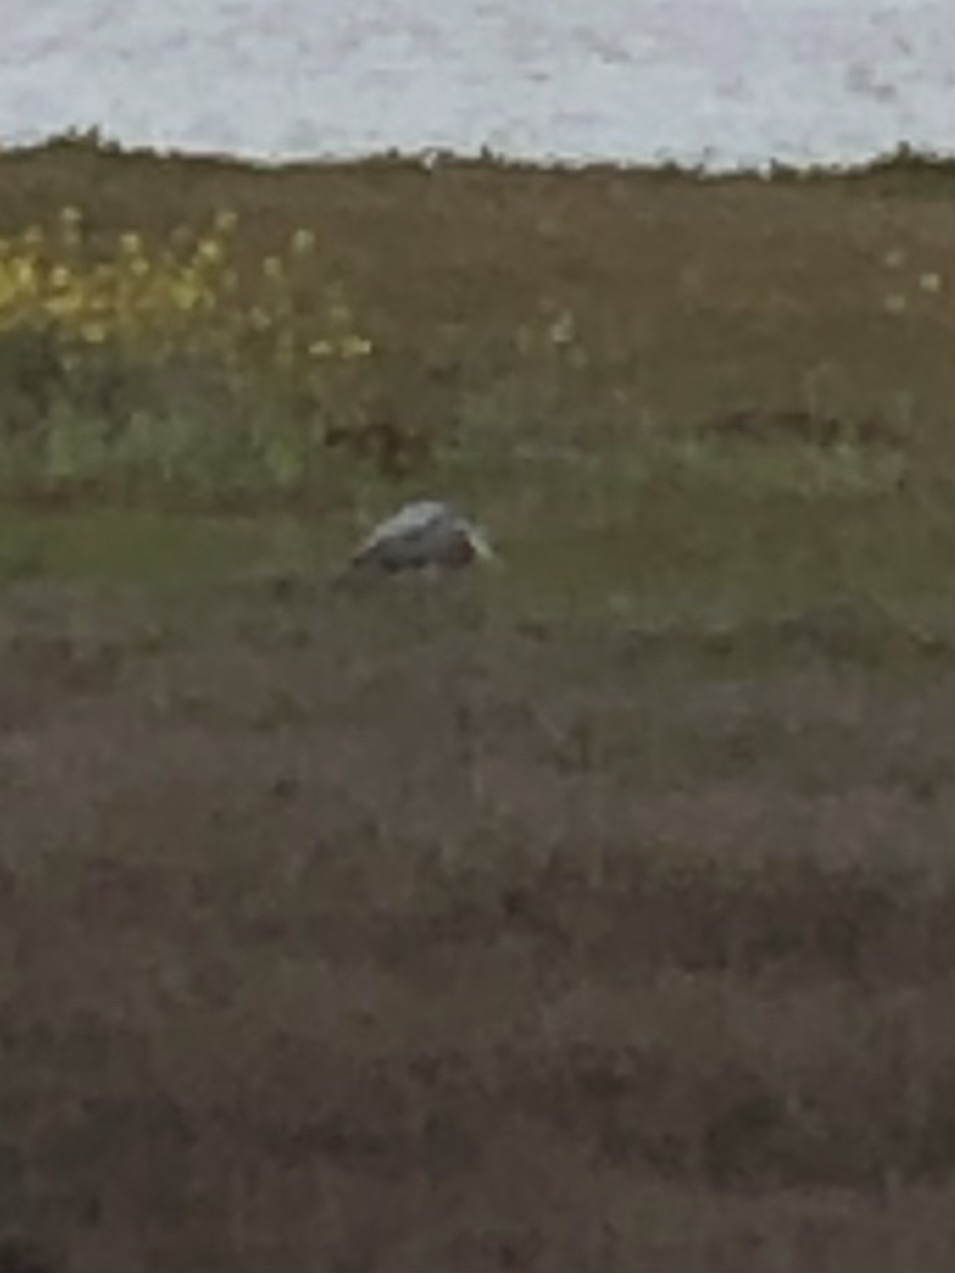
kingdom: Animalia
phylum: Chordata
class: Aves
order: Pelecaniformes
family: Ardeidae
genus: Ardea
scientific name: Ardea herodias
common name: Great blue heron
